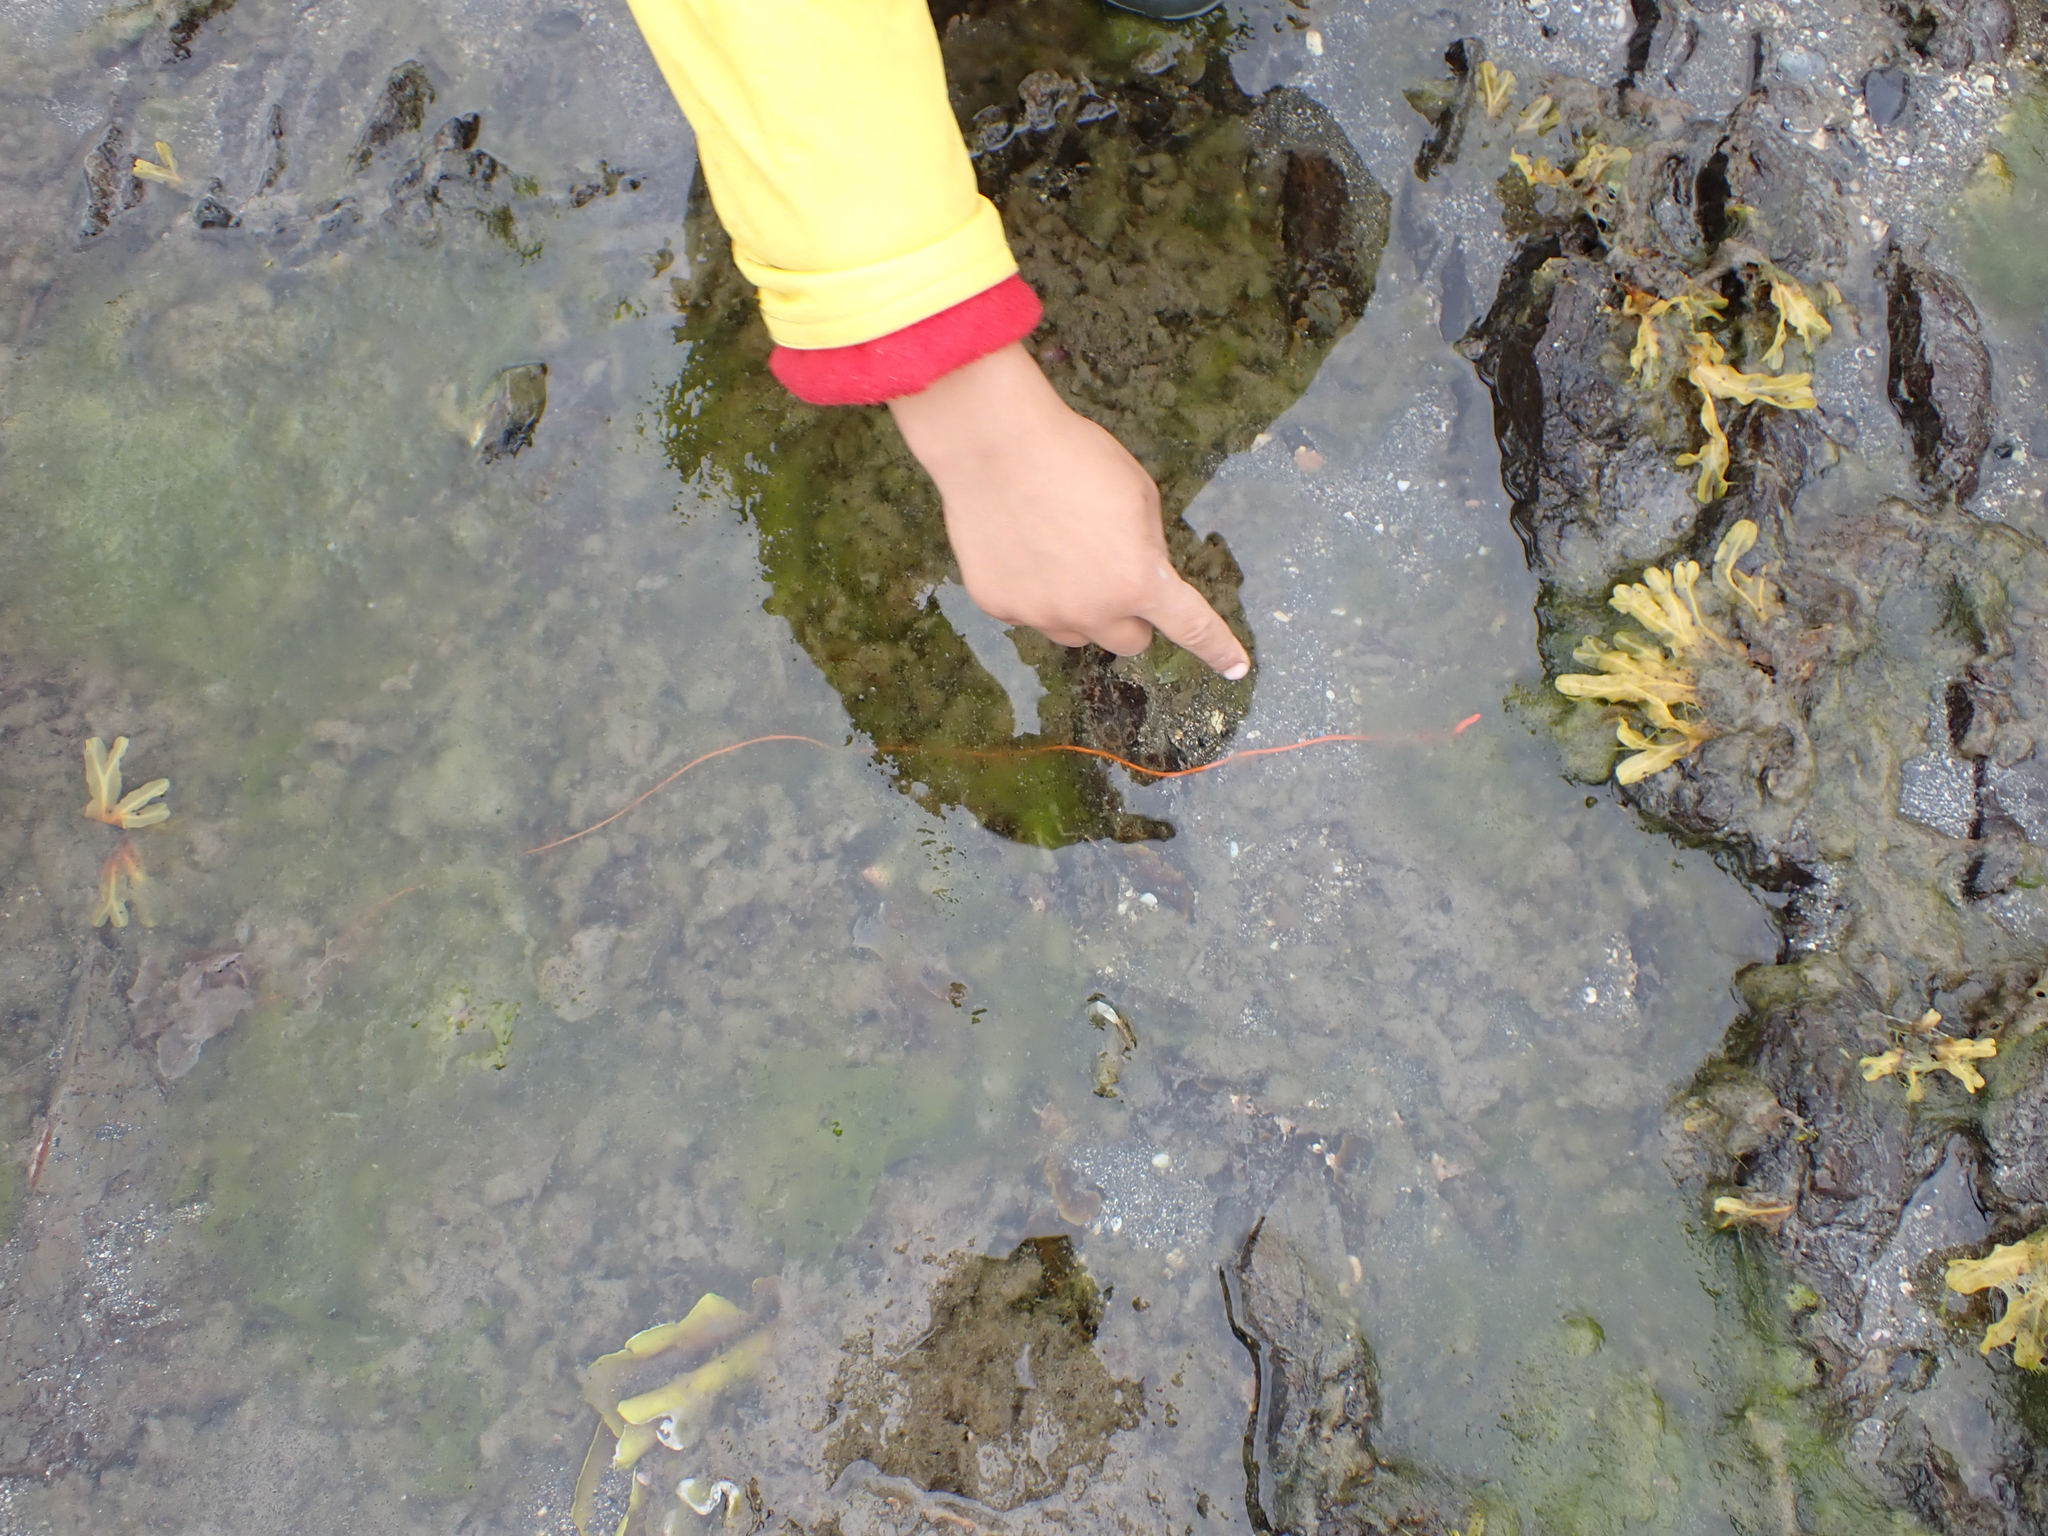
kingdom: Animalia
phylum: Nemertea
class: Palaeonemertea
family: Tubulanidae
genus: Tubulanus
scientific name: Tubulanus polymorphus
